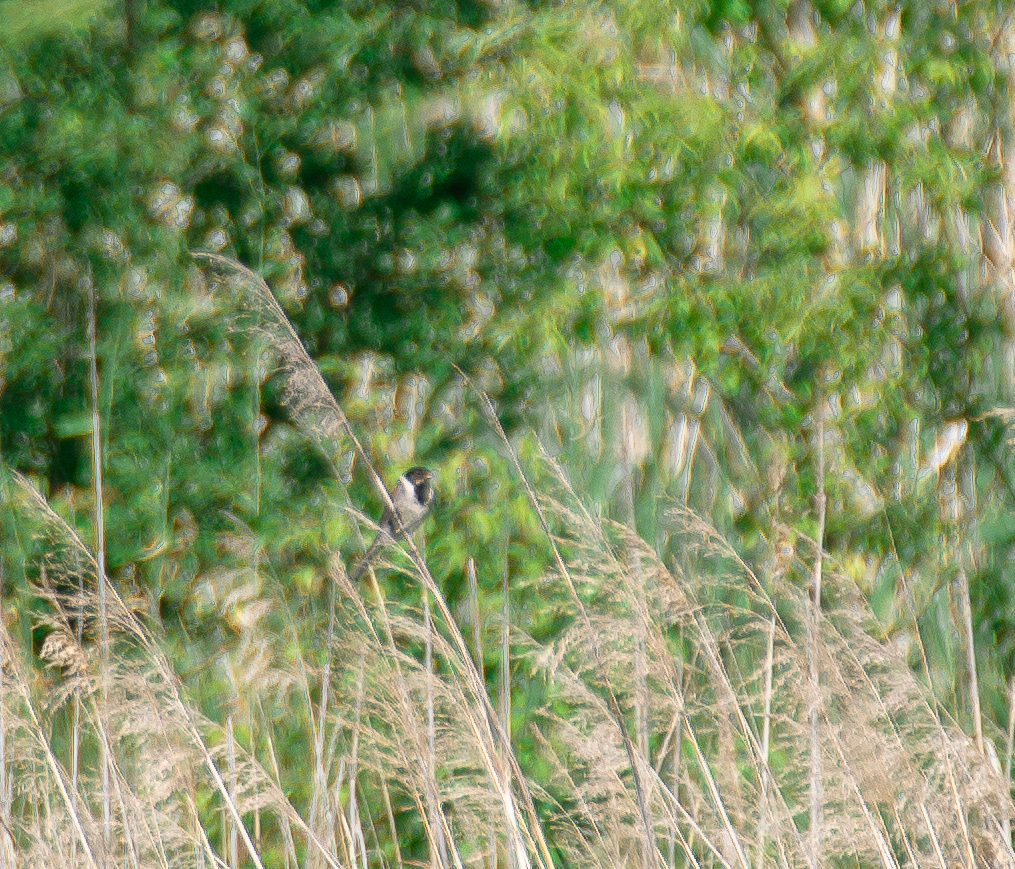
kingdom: Animalia
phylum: Chordata
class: Aves
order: Passeriformes
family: Emberizidae
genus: Emberiza
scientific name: Emberiza schoeniclus
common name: Reed bunting
